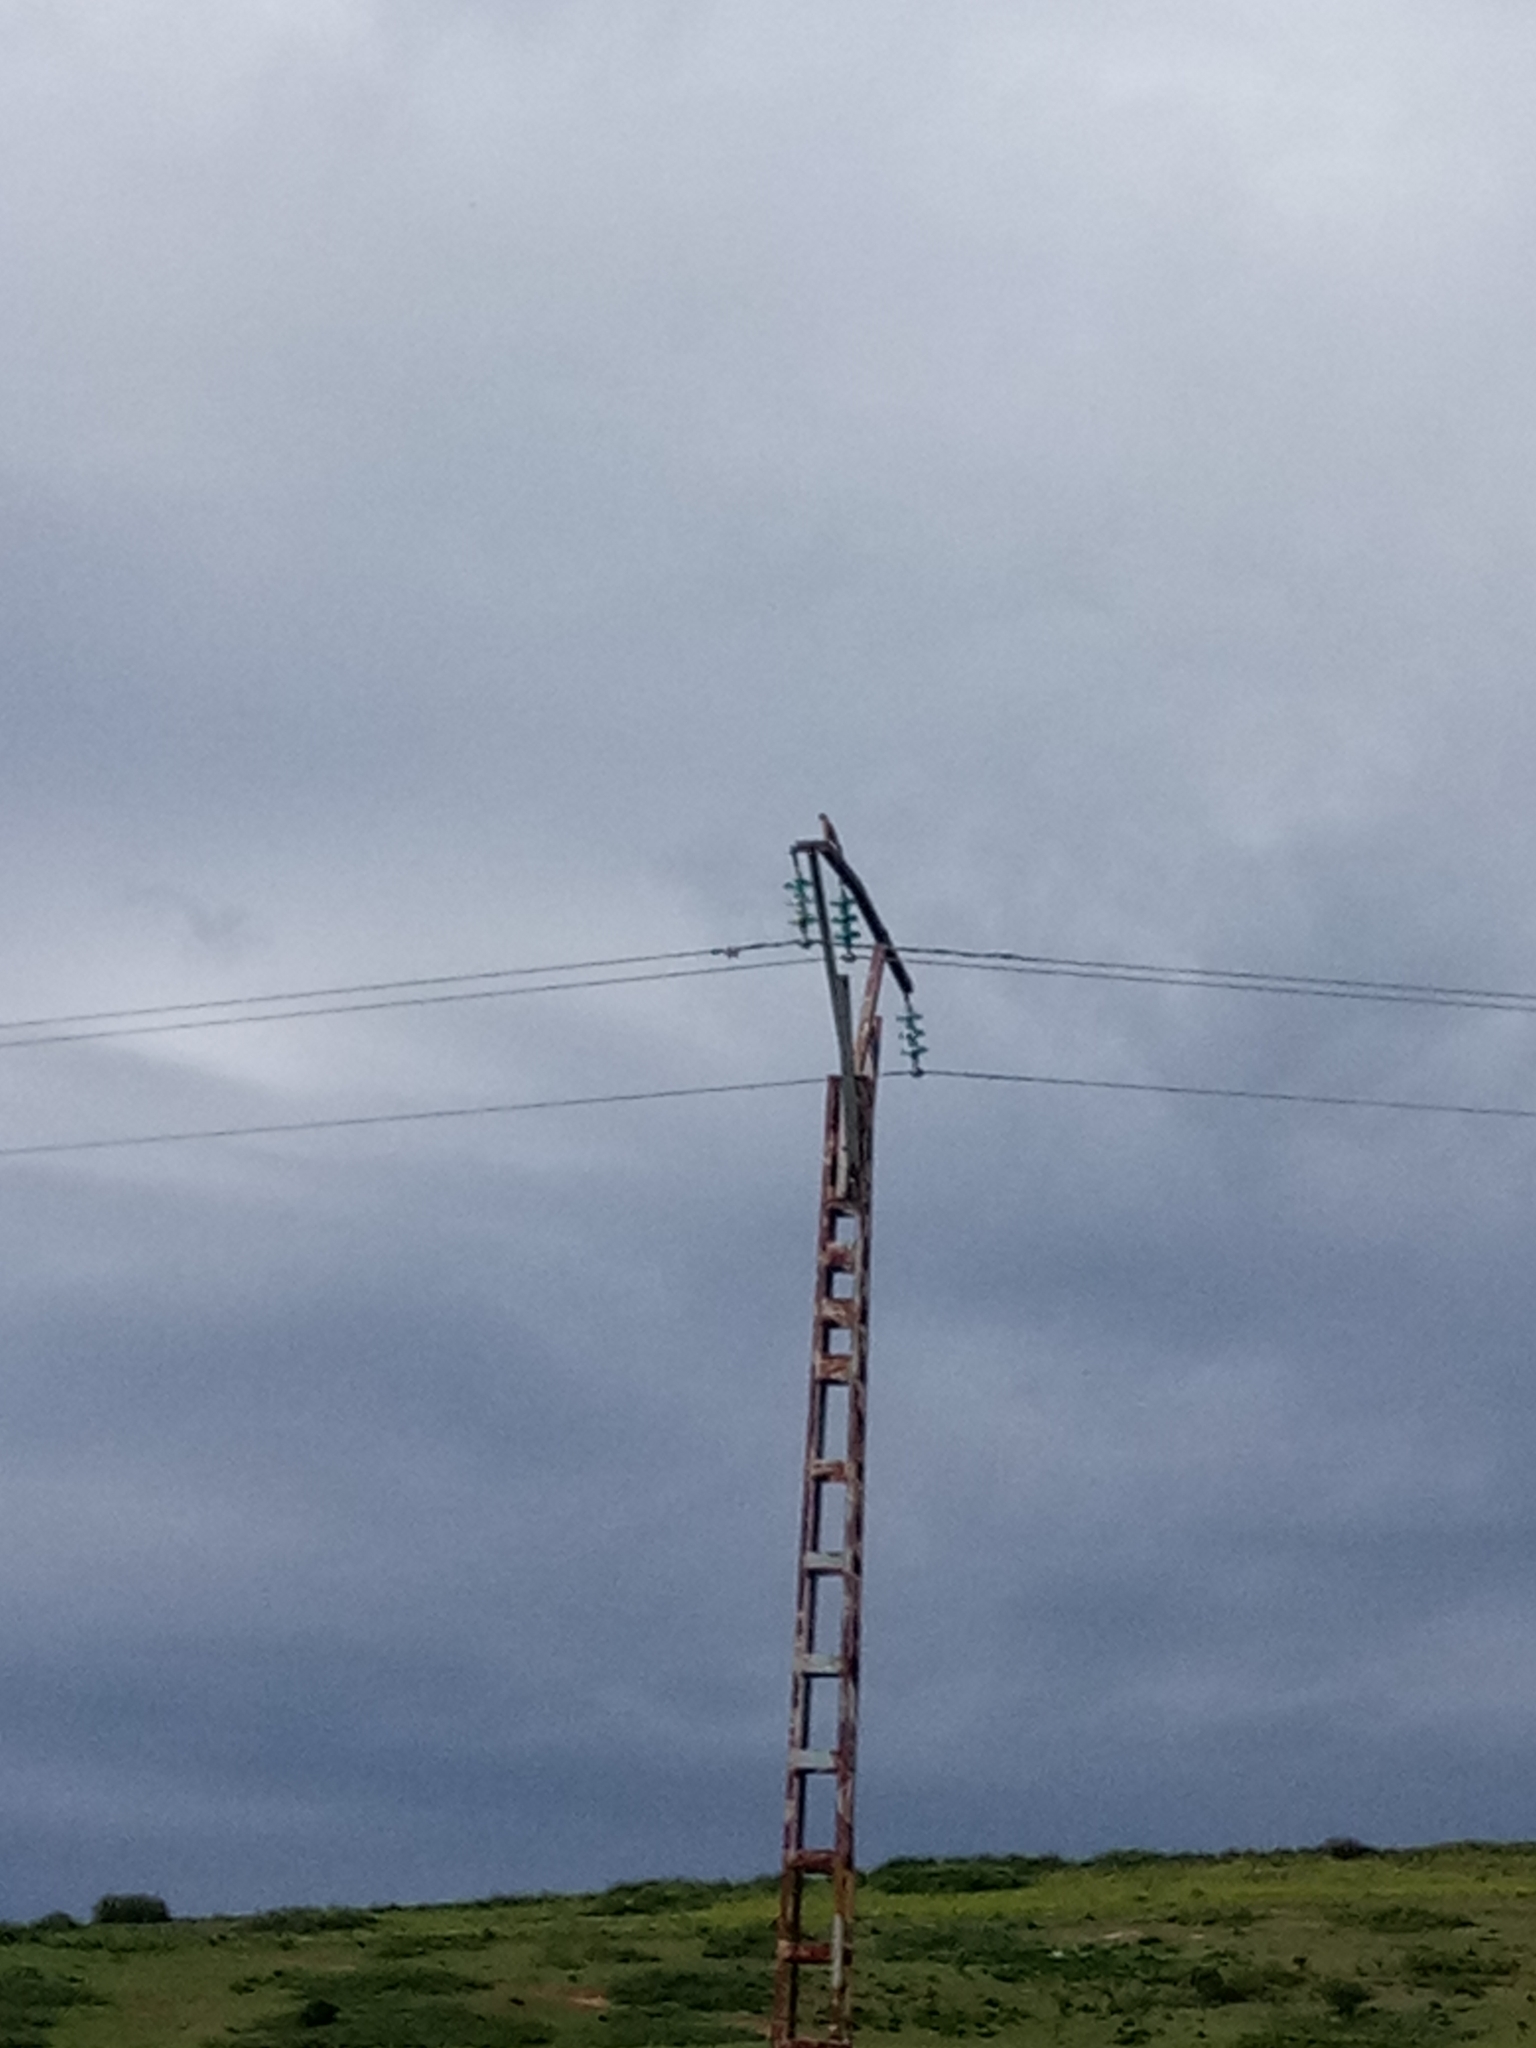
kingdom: Animalia
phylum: Chordata
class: Aves
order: Falconiformes
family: Falconidae
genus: Falco
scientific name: Falco tinnunculus
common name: Common kestrel
